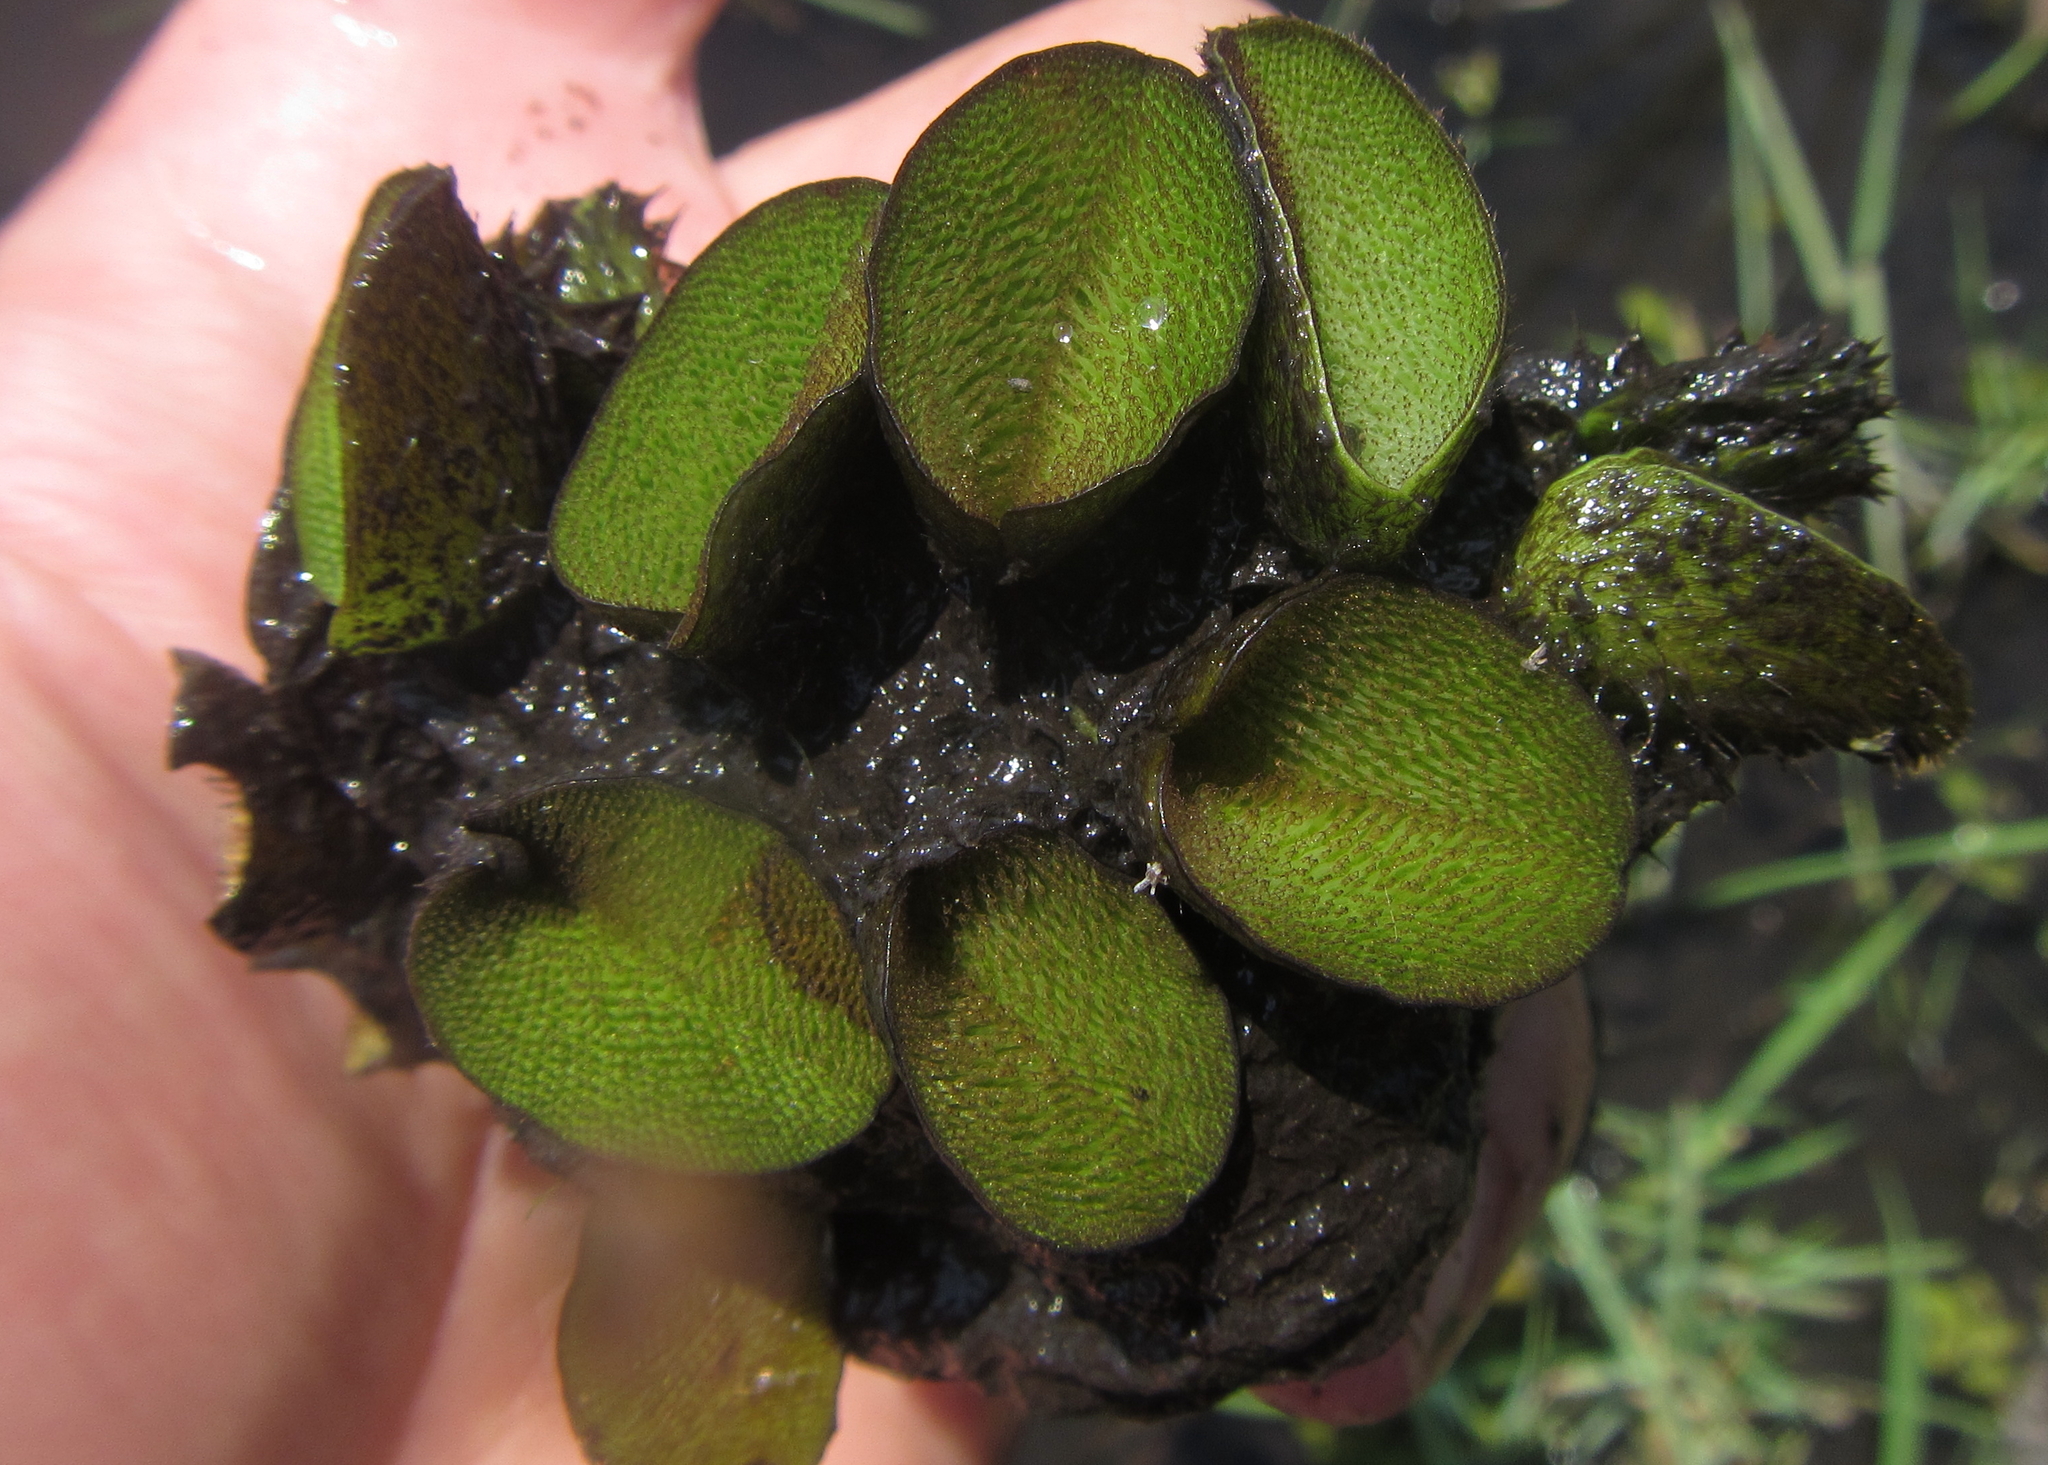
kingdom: Plantae
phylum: Tracheophyta
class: Polypodiopsida
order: Salviniales
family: Salviniaceae
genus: Salvinia
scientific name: Salvinia molesta
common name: Kariba weed
